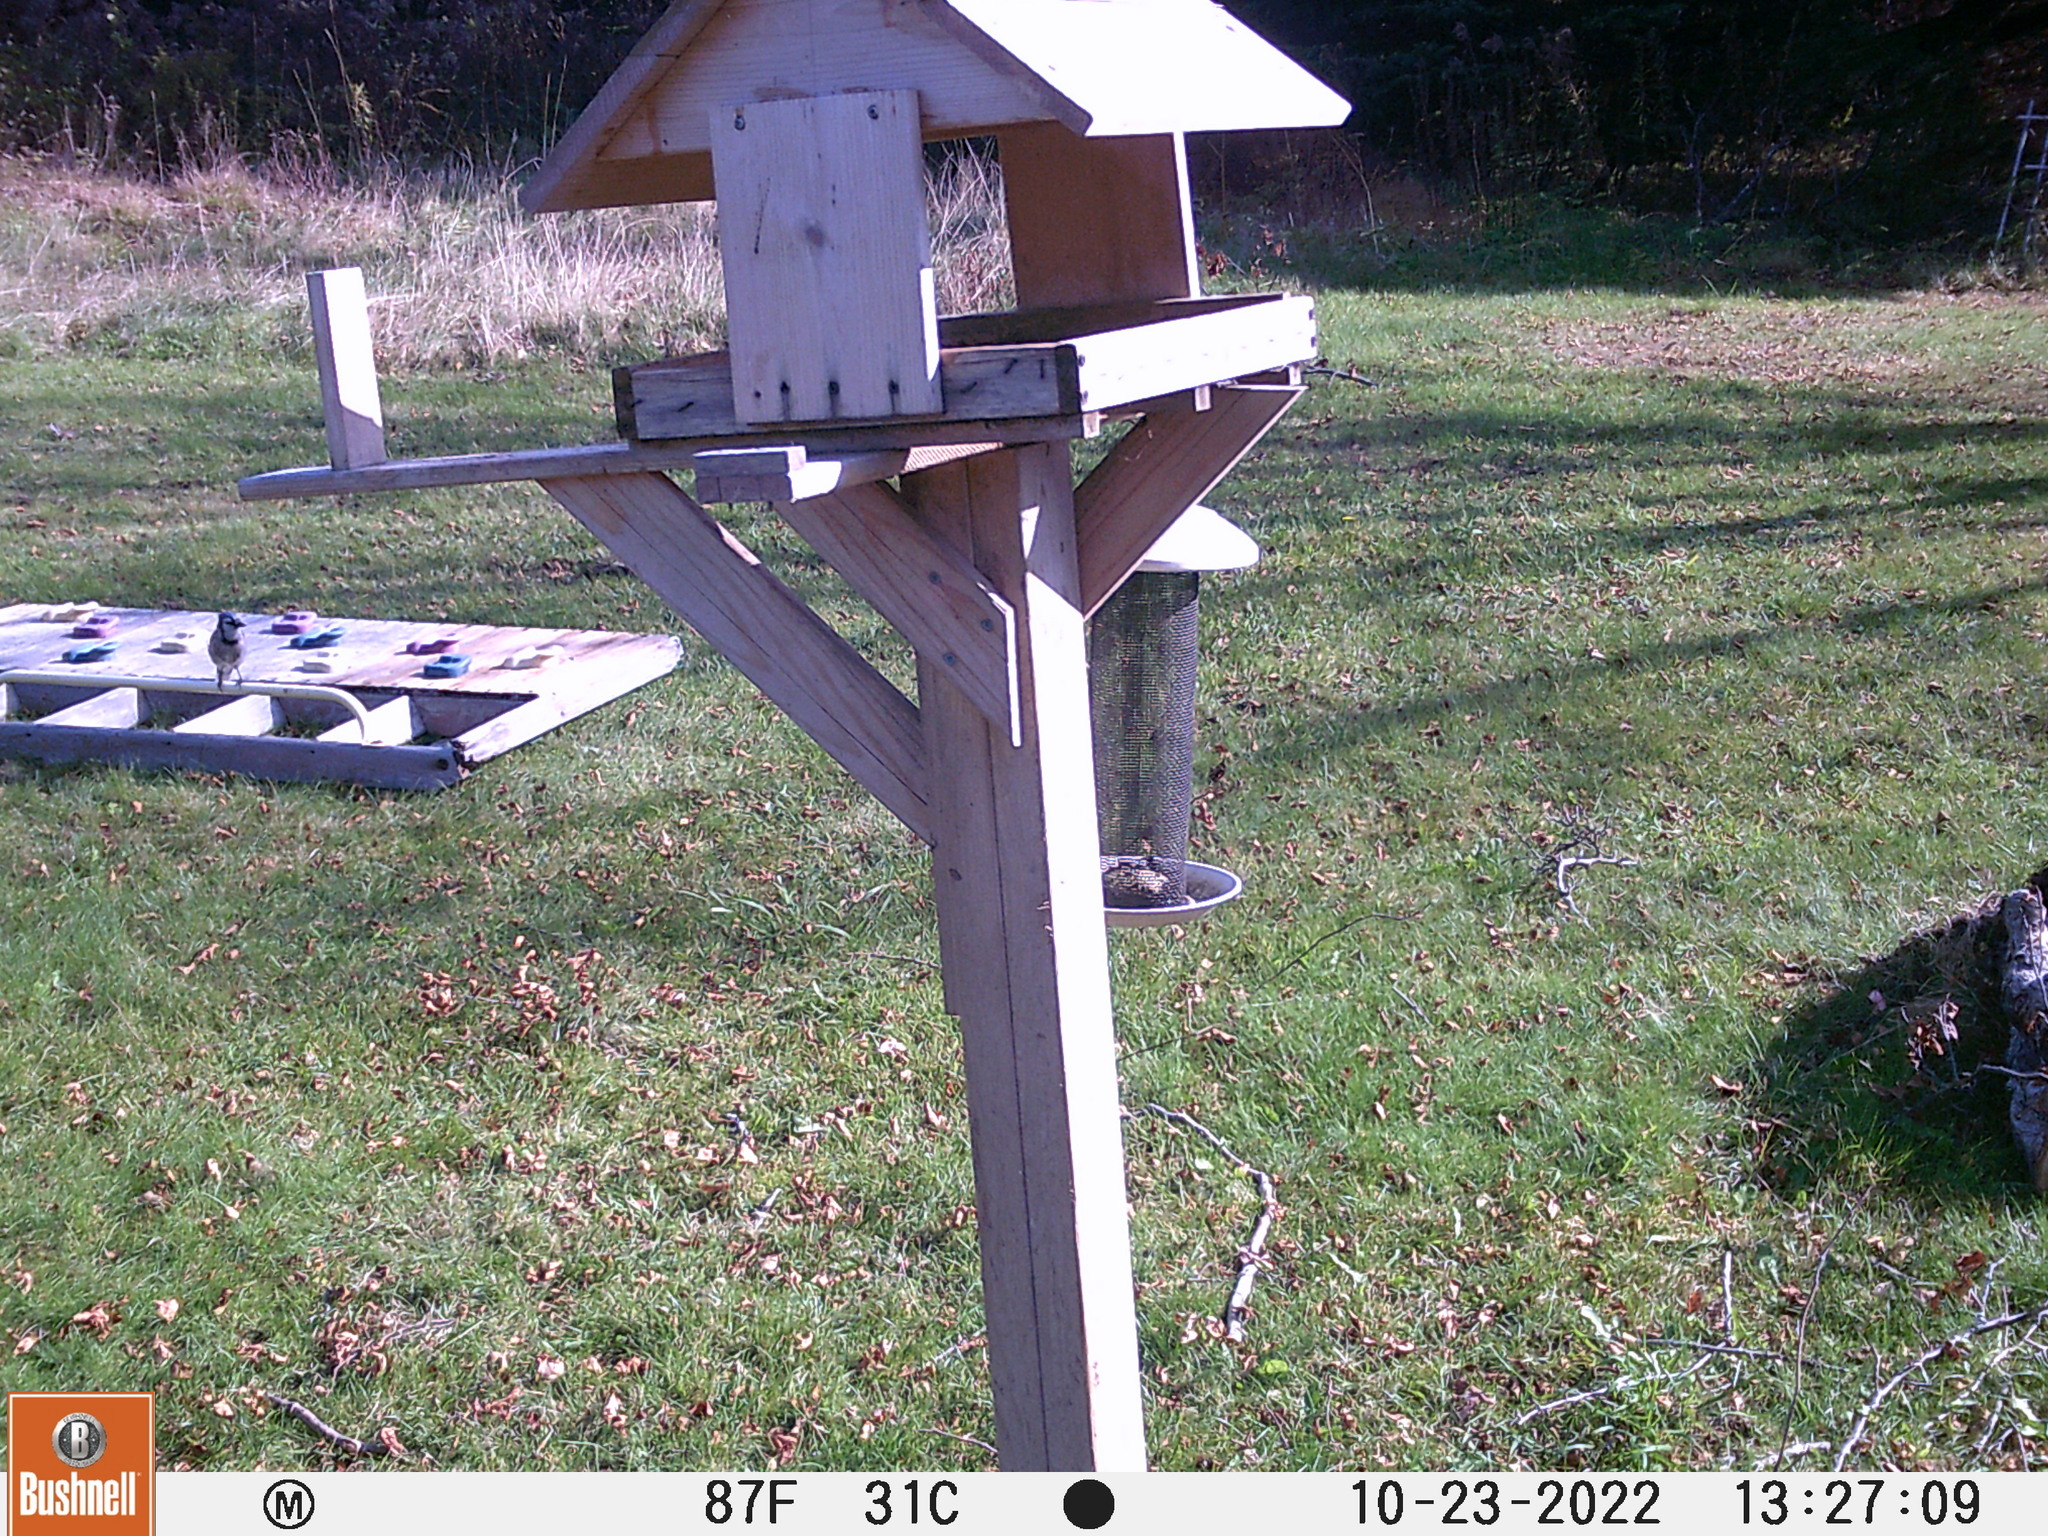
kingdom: Animalia
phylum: Chordata
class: Aves
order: Passeriformes
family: Corvidae
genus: Cyanocitta
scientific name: Cyanocitta cristata
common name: Blue jay
